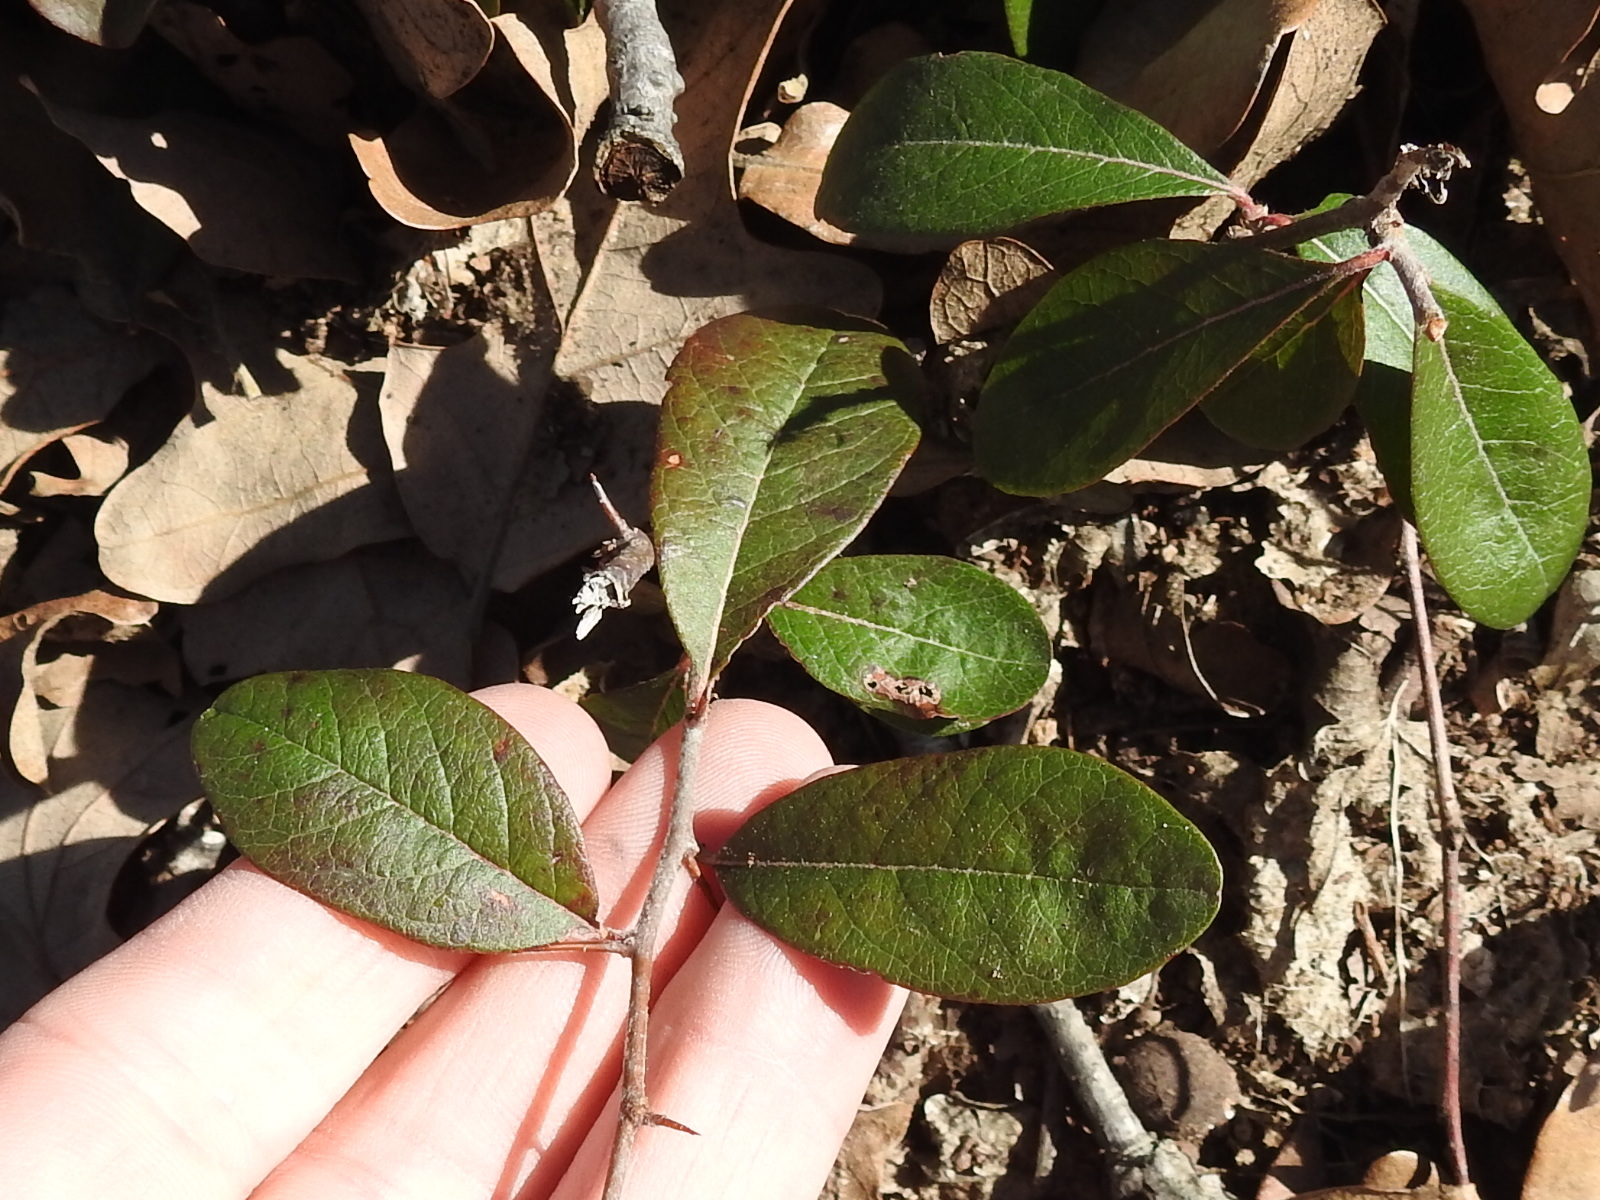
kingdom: Plantae
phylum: Tracheophyta
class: Magnoliopsida
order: Ericales
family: Sapotaceae
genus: Sideroxylon
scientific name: Sideroxylon lanuginosum
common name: Chittamwood
